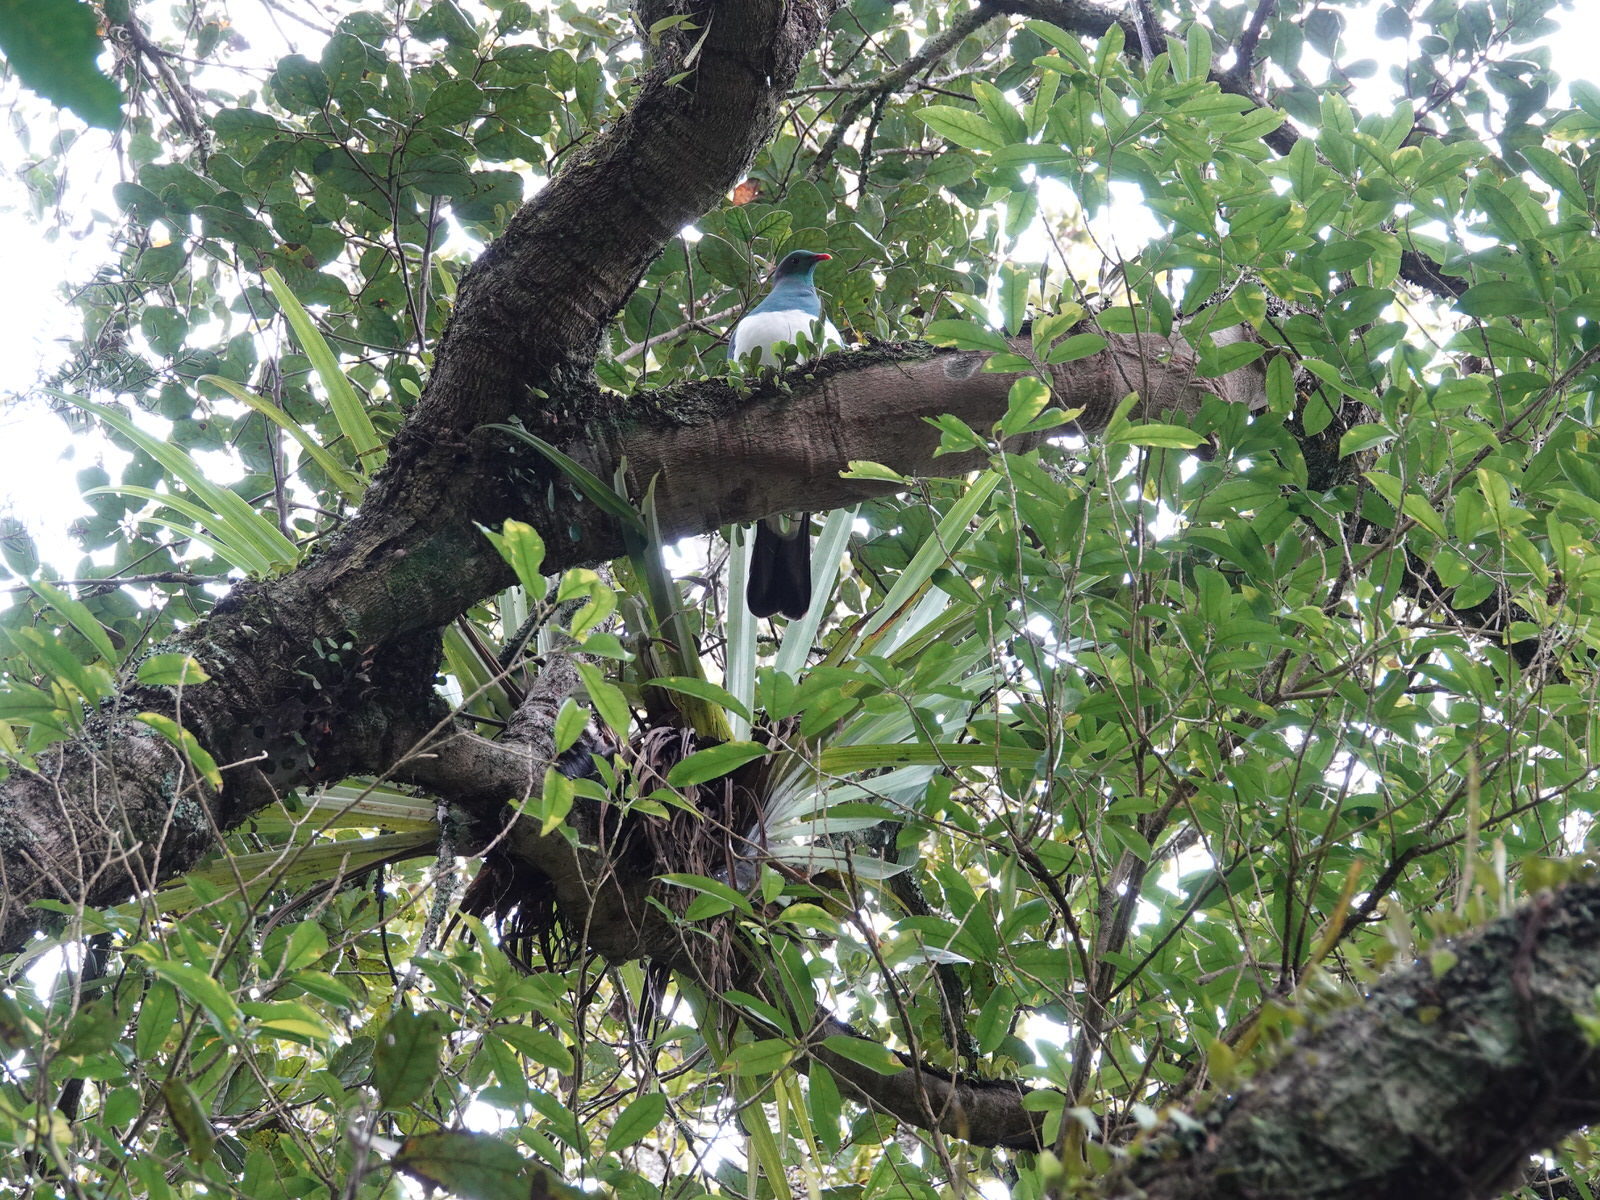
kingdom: Animalia
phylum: Chordata
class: Aves
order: Columbiformes
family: Columbidae
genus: Hemiphaga
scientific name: Hemiphaga novaeseelandiae
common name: New zealand pigeon
